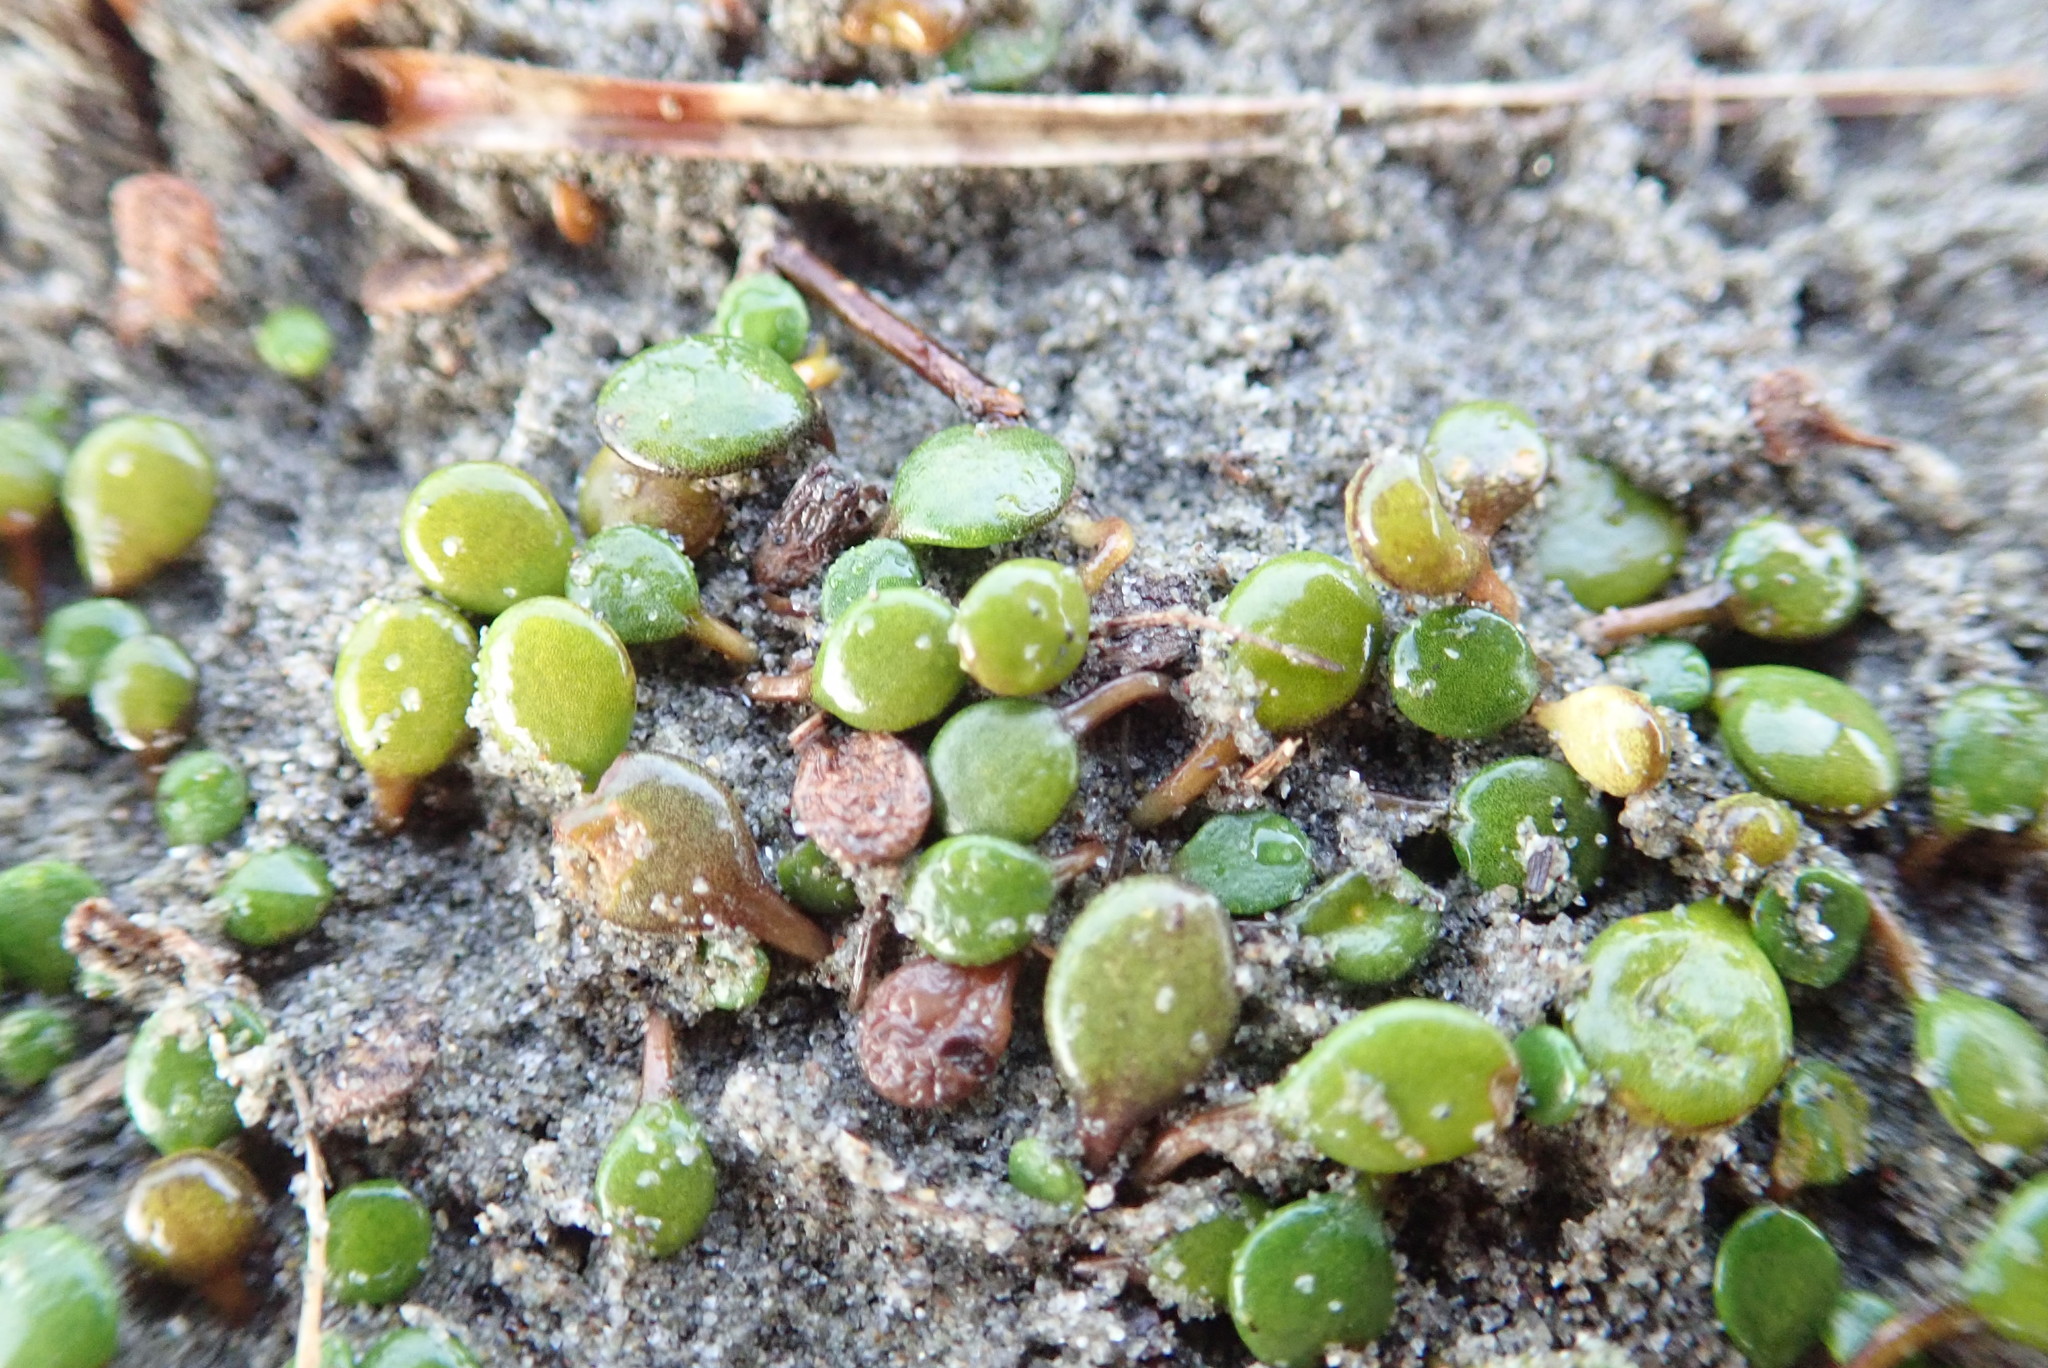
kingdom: Plantae
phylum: Tracheophyta
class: Magnoliopsida
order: Asterales
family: Goodeniaceae
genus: Goodenia
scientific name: Goodenia heenanii
